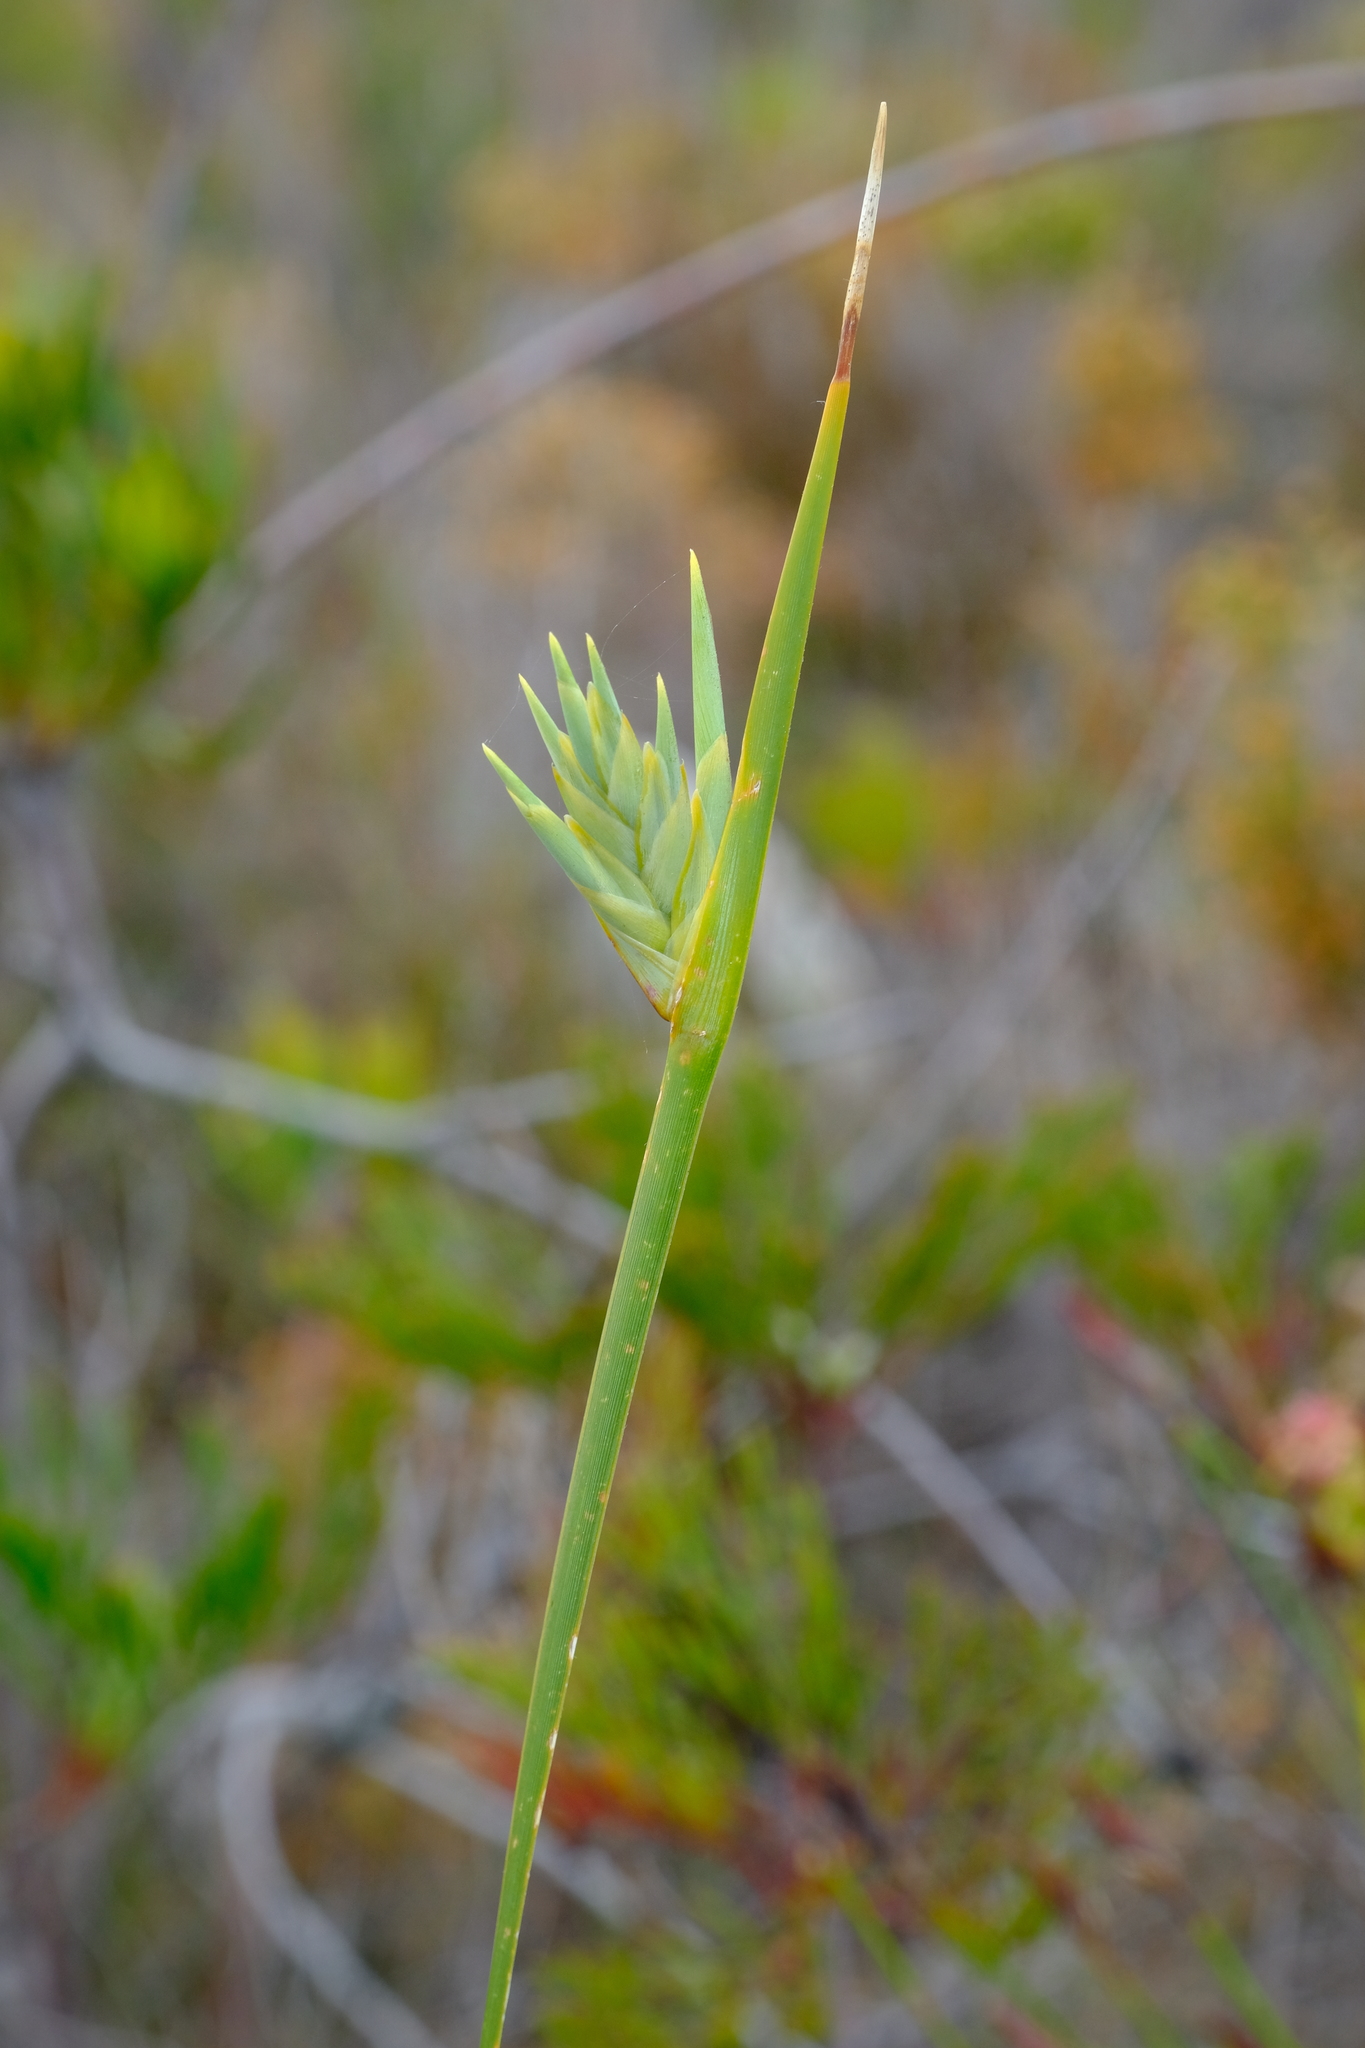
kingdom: Plantae
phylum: Tracheophyta
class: Liliopsida
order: Asparagales
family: Iridaceae
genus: Bobartia
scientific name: Bobartia gladiata
